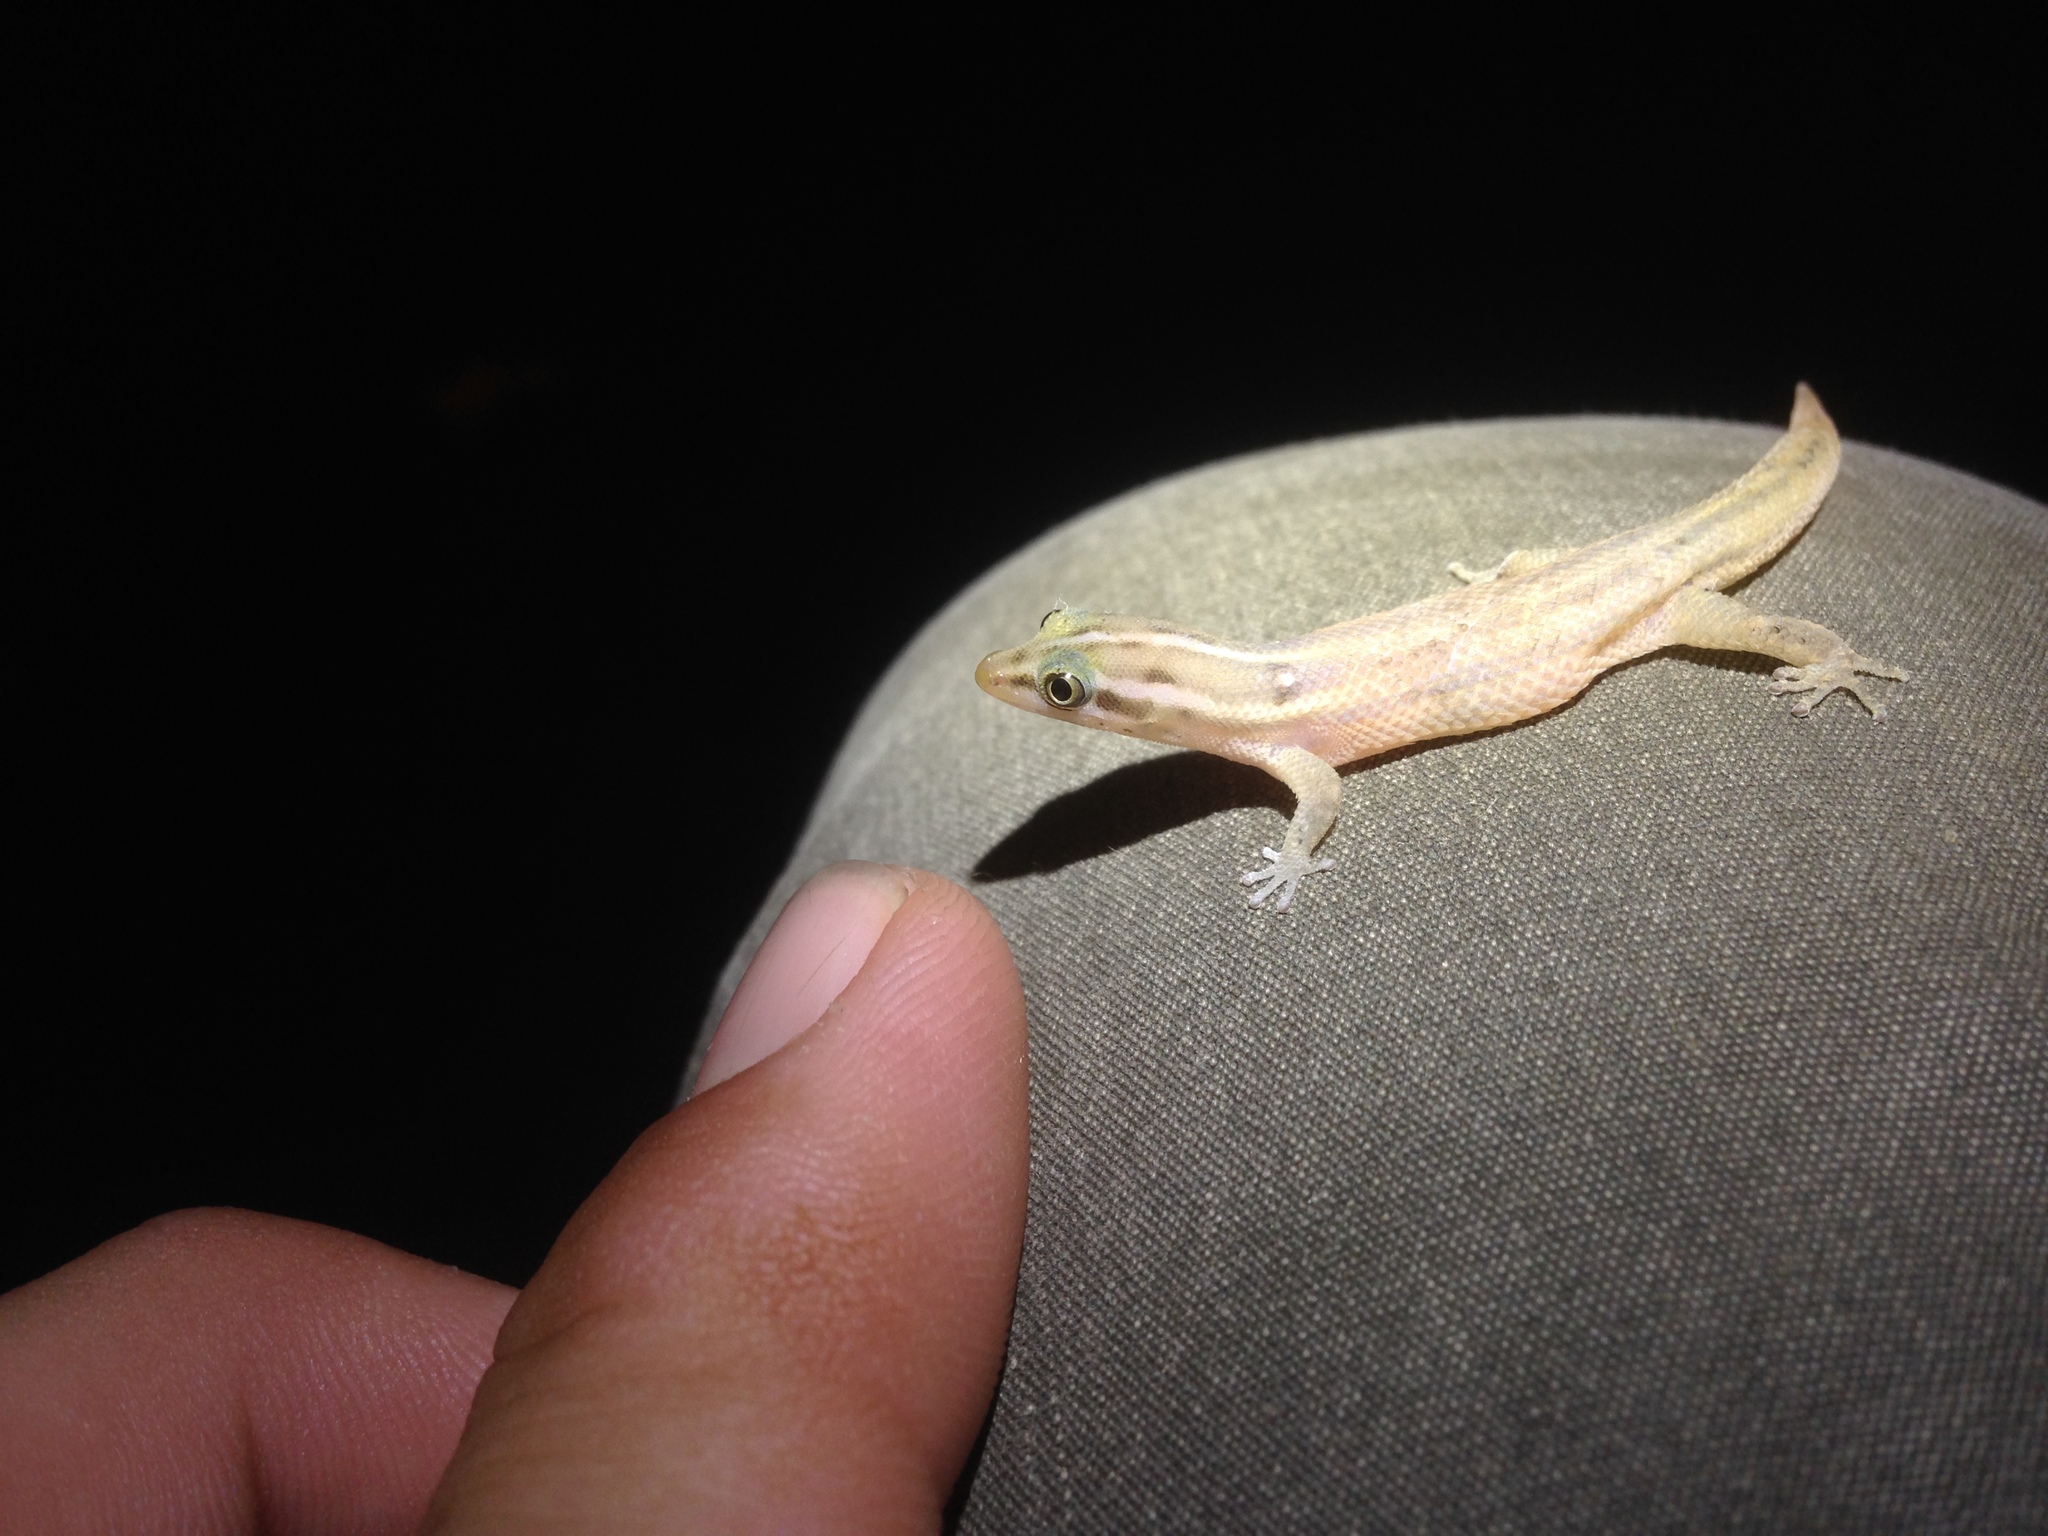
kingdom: Animalia
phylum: Chordata
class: Squamata
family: Sphaerodactylidae
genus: Sphaerodactylus
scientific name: Sphaerodactylus roosevelti
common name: Roosevelt's beige sphaero
